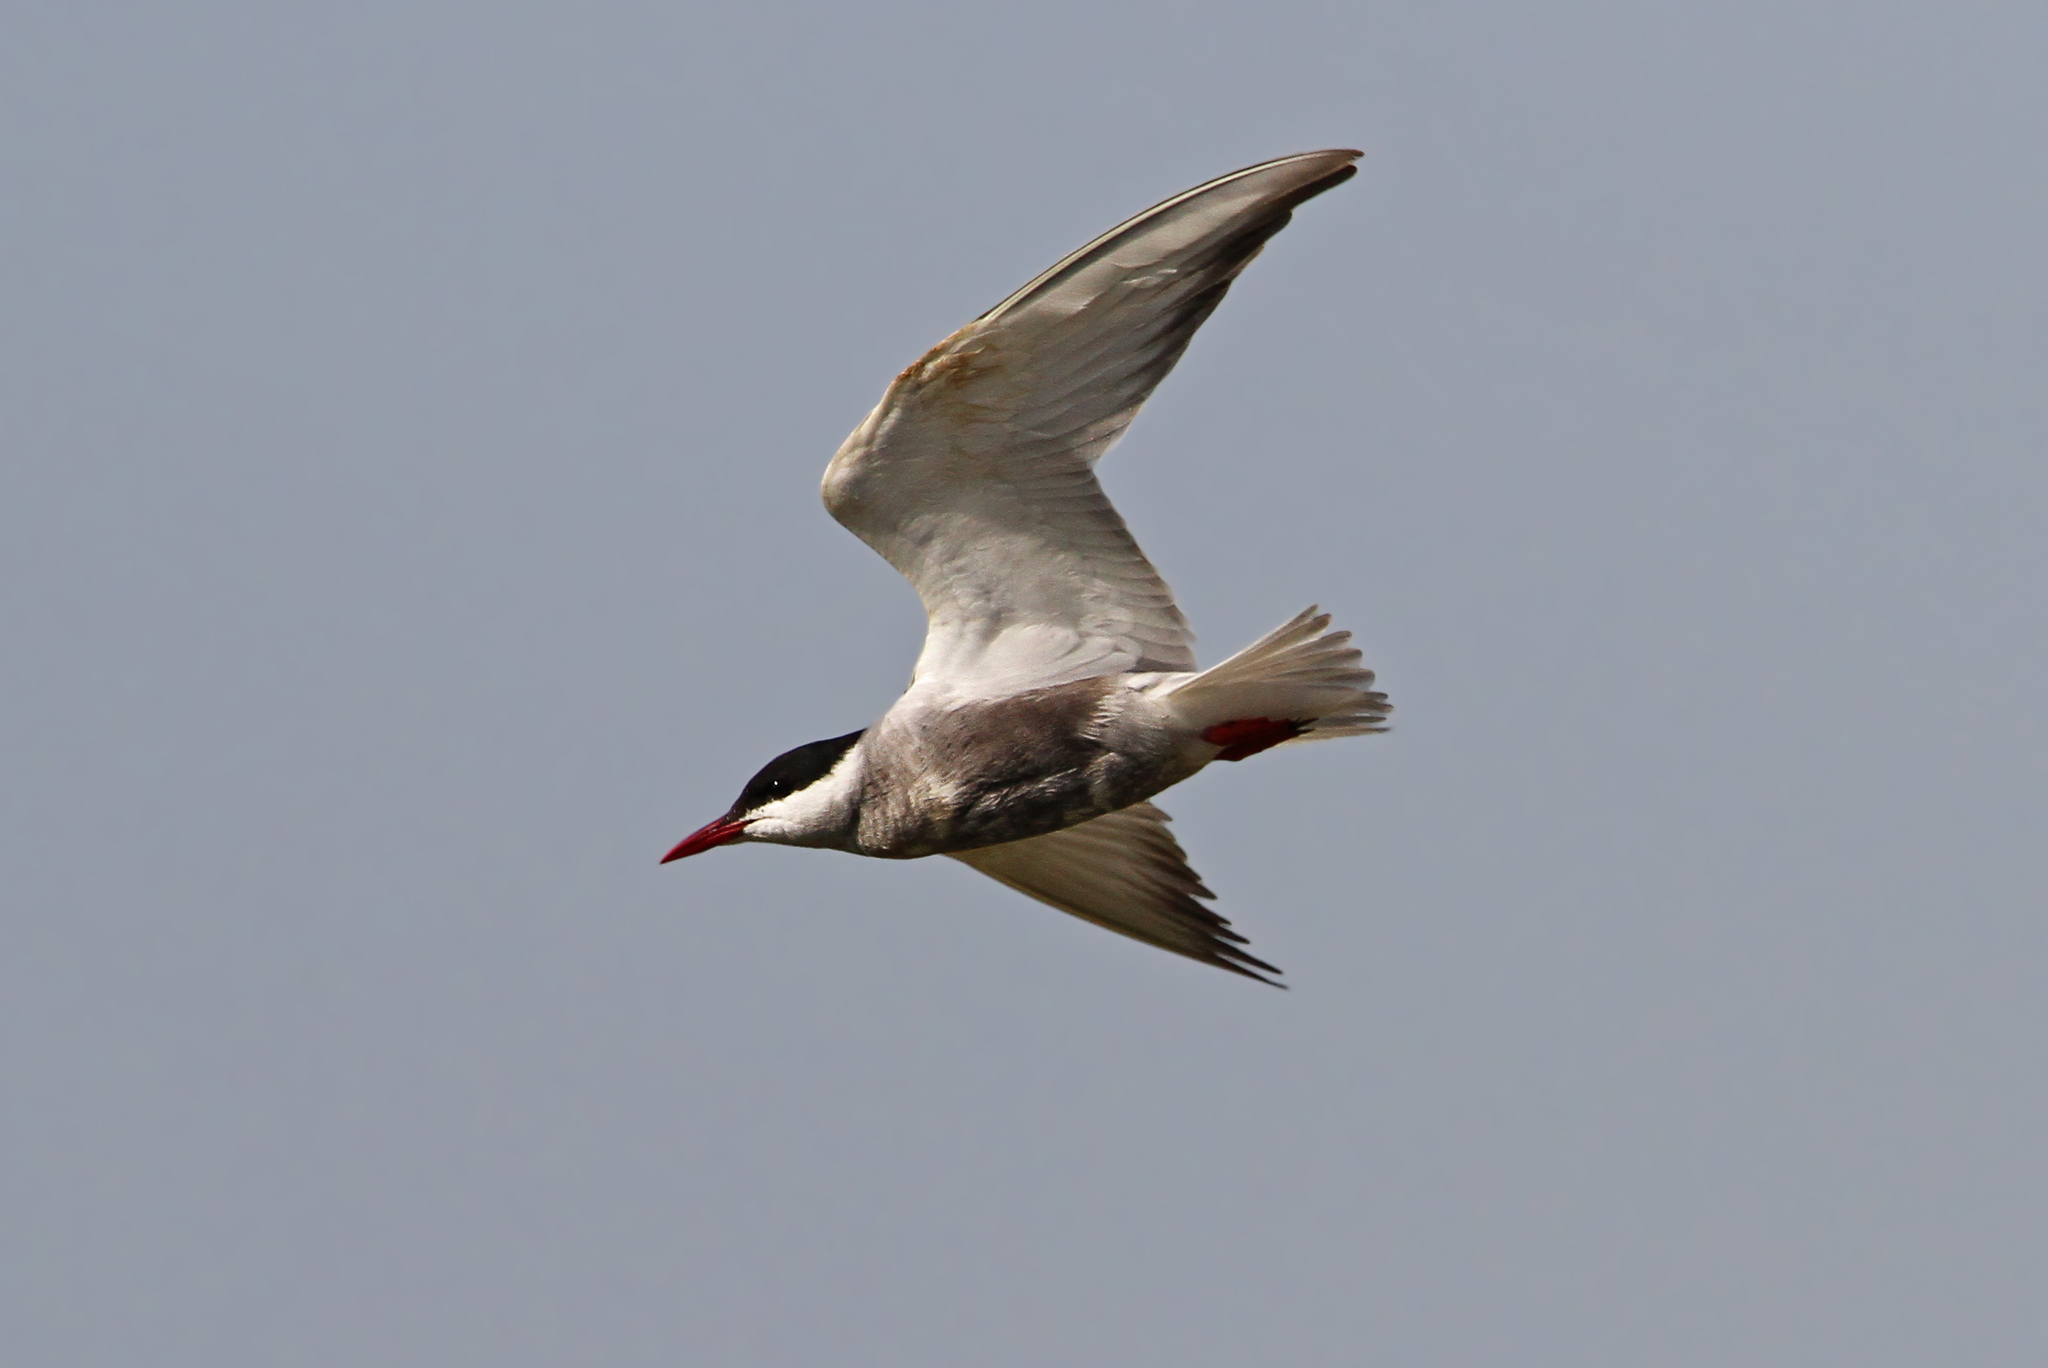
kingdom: Animalia
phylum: Chordata
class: Aves
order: Charadriiformes
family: Laridae
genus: Chlidonias
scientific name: Chlidonias hybrida
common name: Whiskered tern
